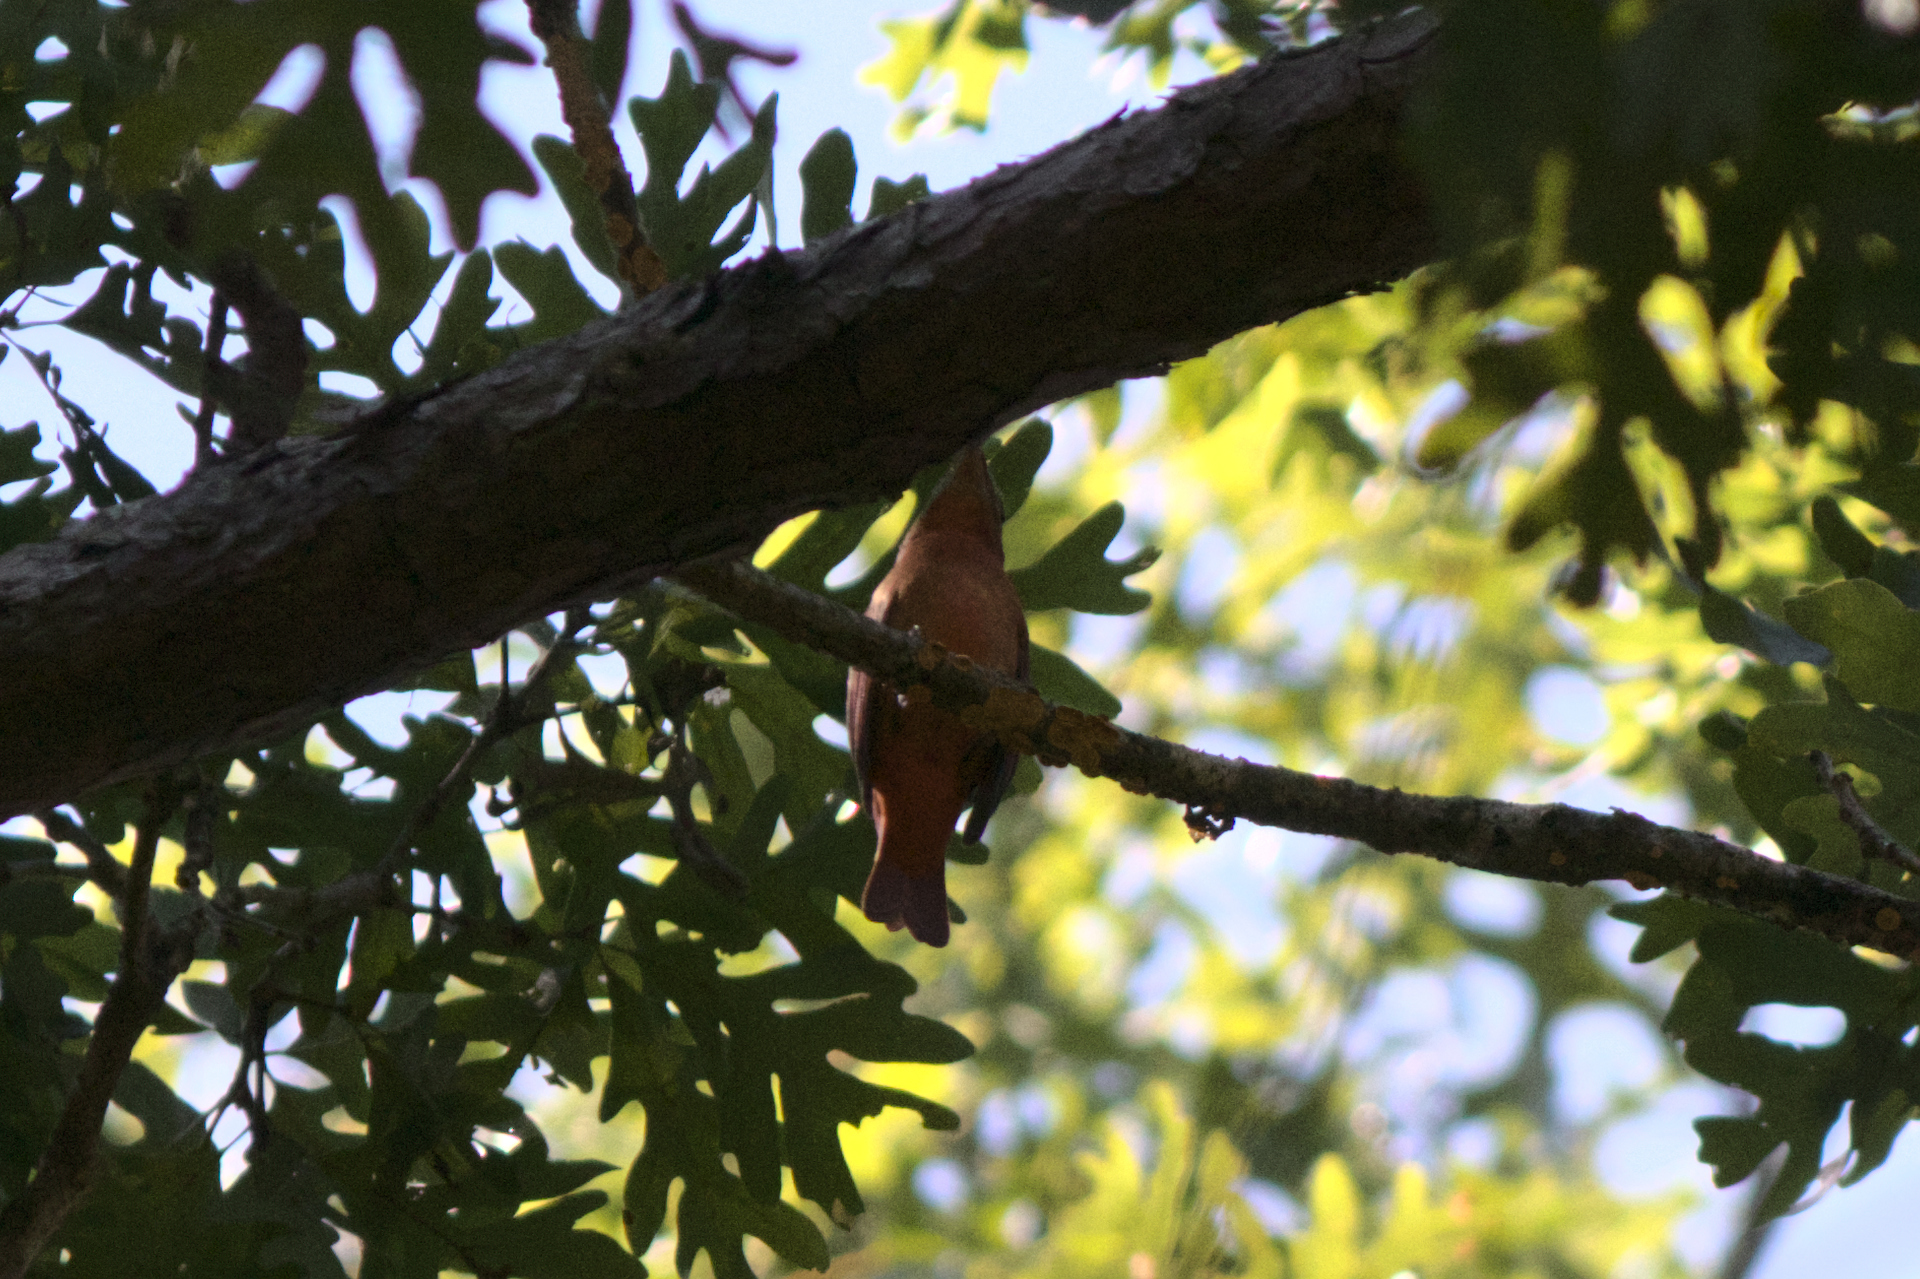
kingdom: Animalia
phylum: Chordata
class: Aves
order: Passeriformes
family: Cardinalidae
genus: Piranga
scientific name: Piranga rubra
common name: Summer tanager
